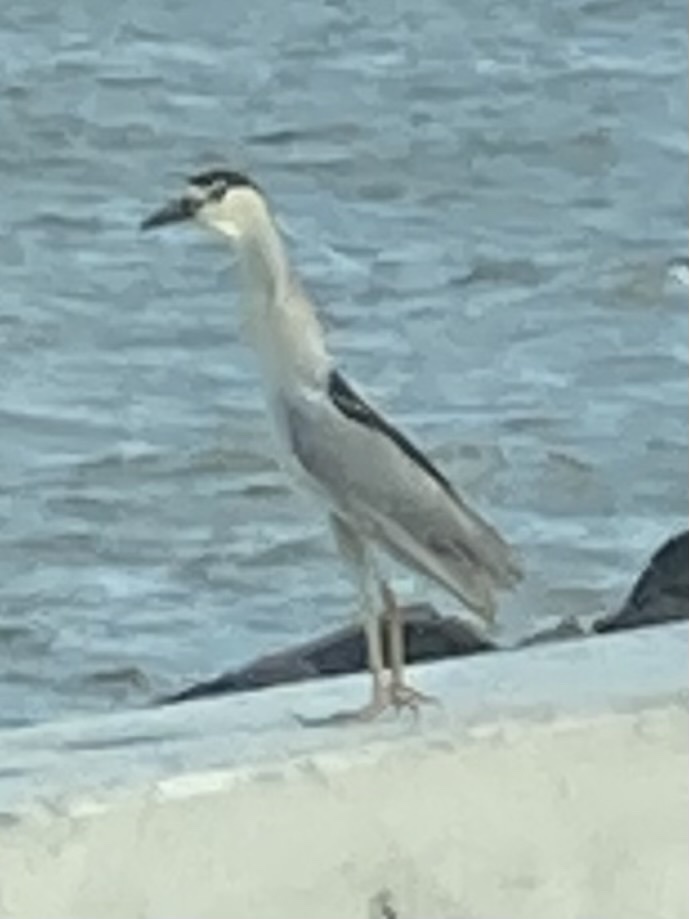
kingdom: Animalia
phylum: Chordata
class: Aves
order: Pelecaniformes
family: Ardeidae
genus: Nycticorax
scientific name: Nycticorax nycticorax
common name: Black-crowned night heron
